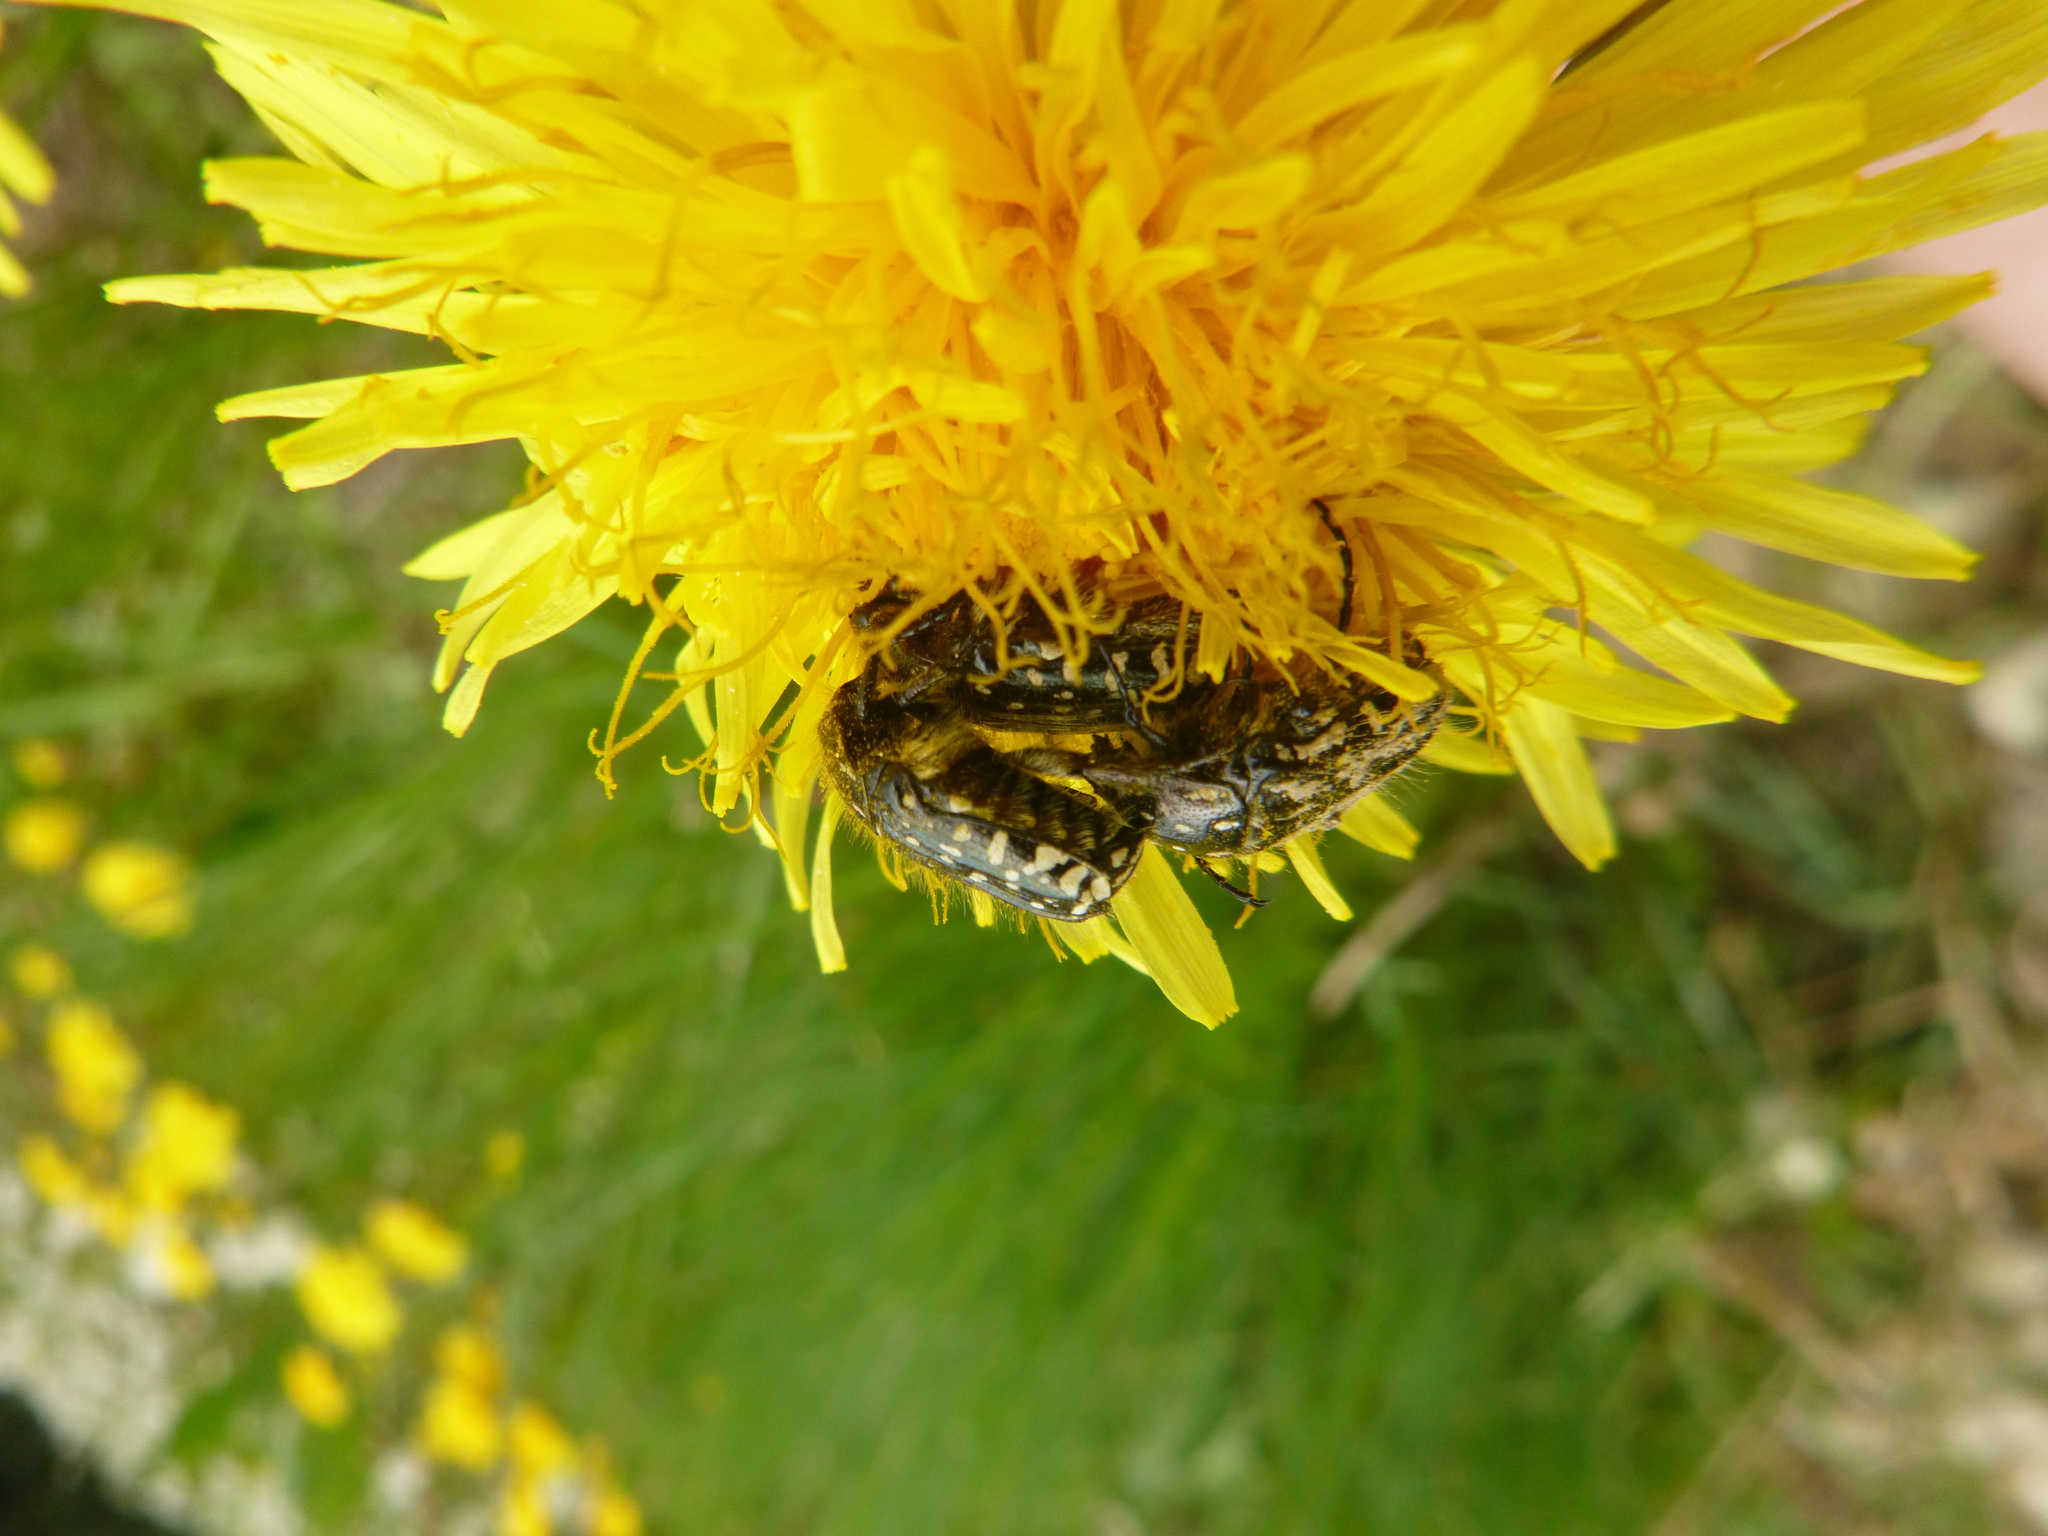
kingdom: Animalia
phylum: Arthropoda
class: Insecta
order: Coleoptera
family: Scarabaeidae
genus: Oxythyrea
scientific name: Oxythyrea funesta
